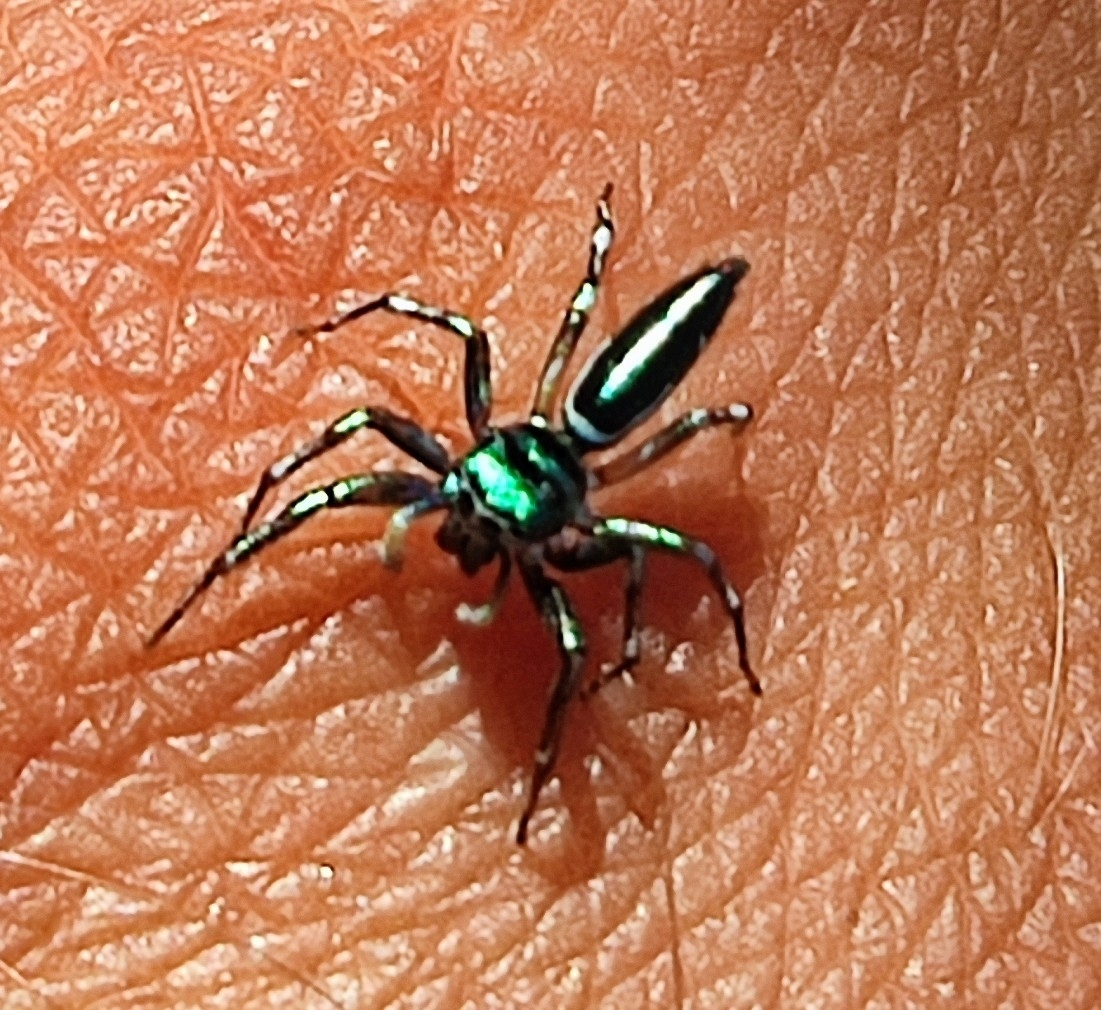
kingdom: Animalia
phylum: Arthropoda
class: Arachnida
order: Araneae
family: Salticidae
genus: Cosmophasis
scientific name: Cosmophasis thalassina
